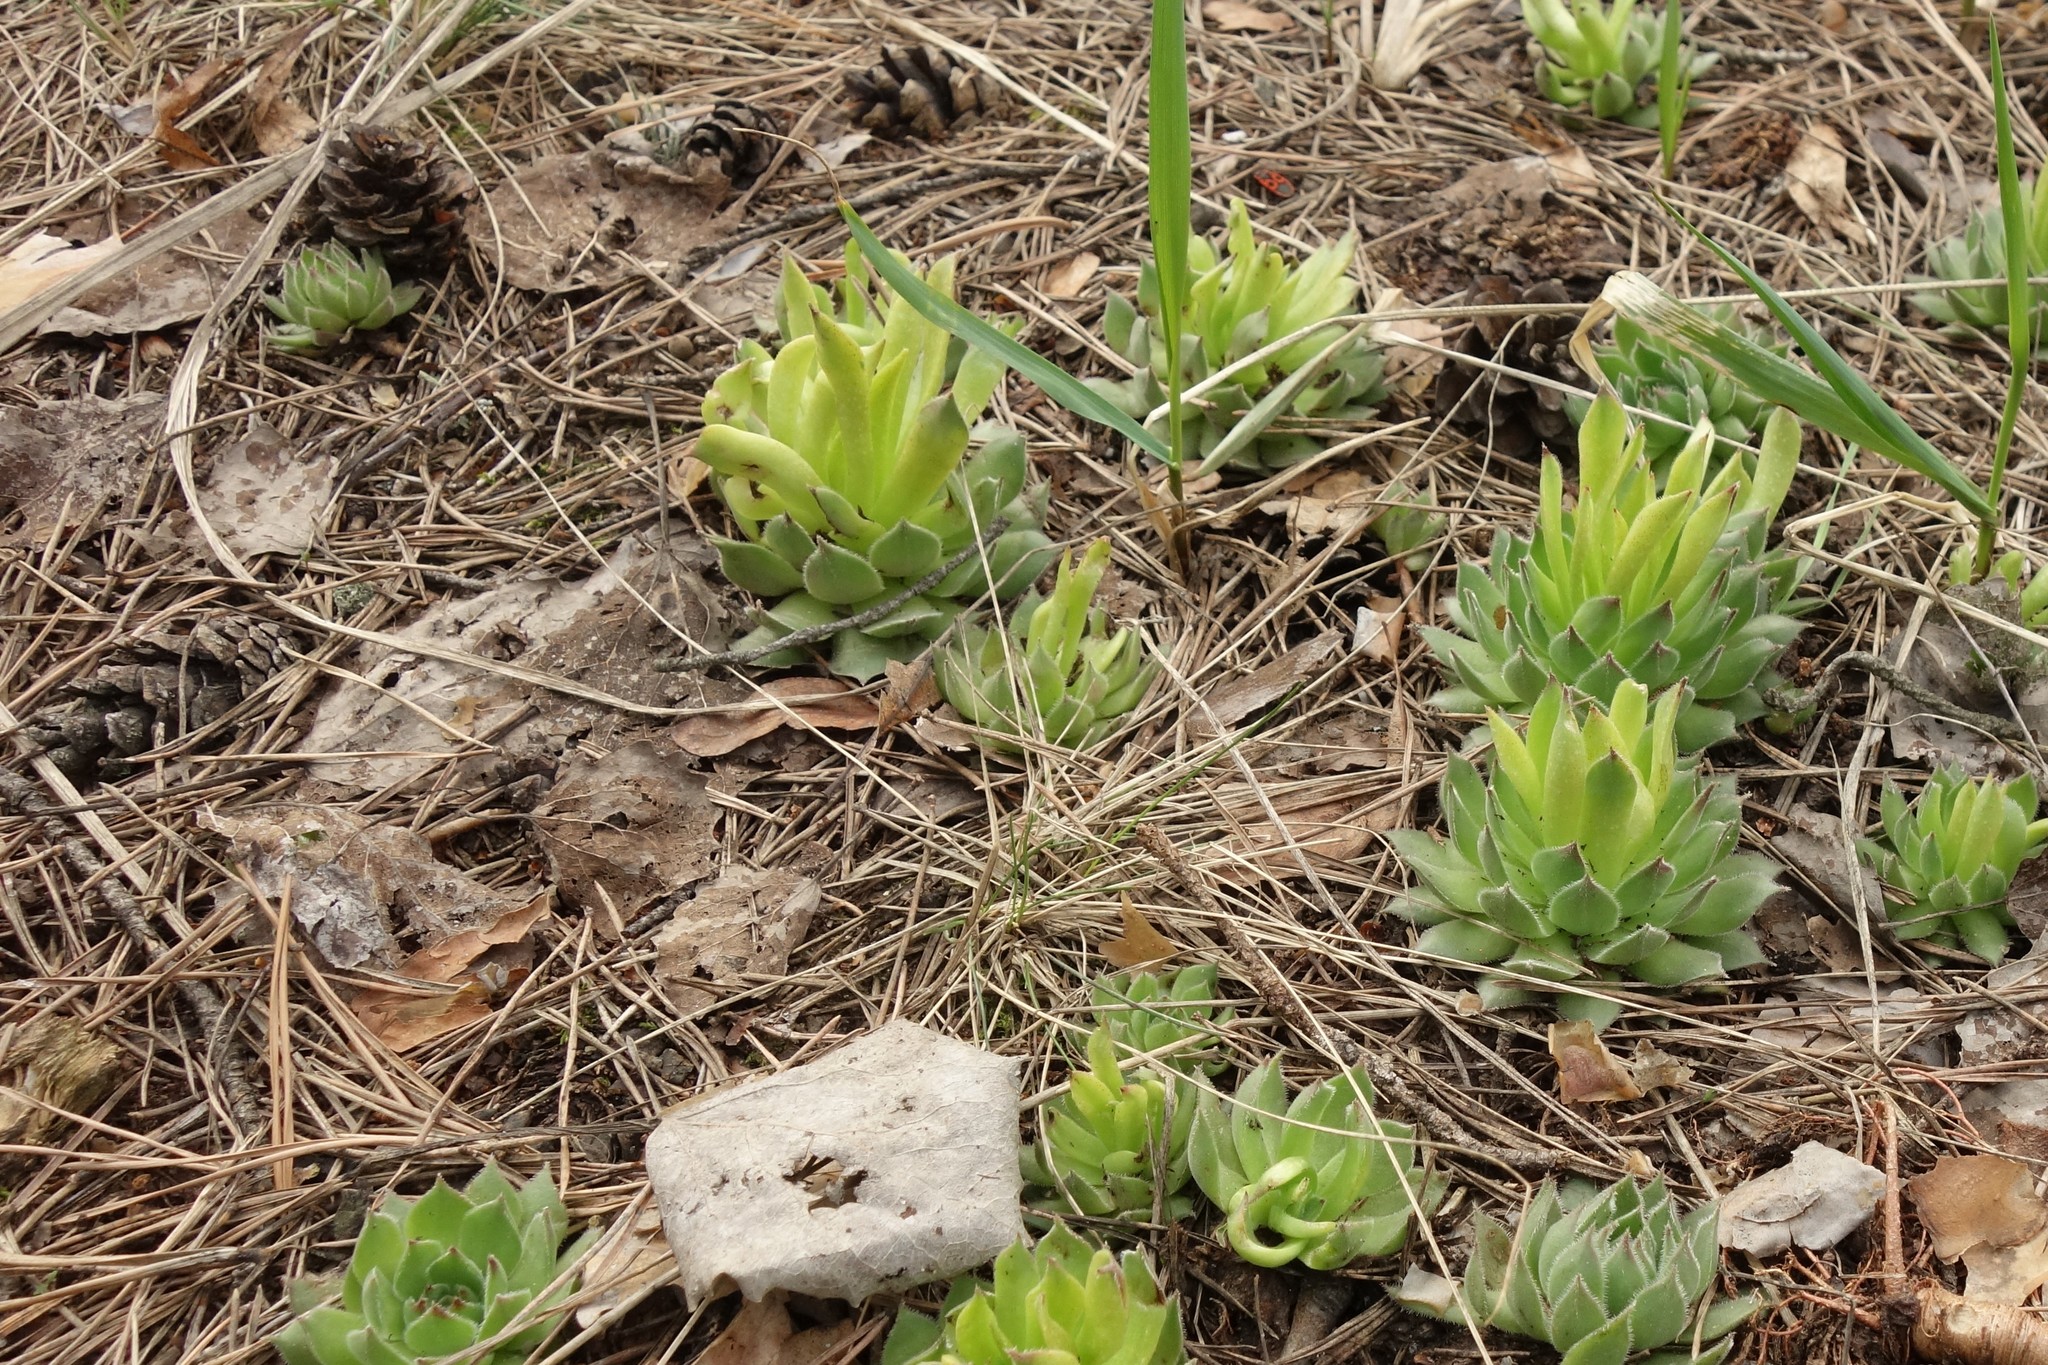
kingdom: Plantae
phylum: Tracheophyta
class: Magnoliopsida
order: Saxifragales
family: Crassulaceae
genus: Sempervivum
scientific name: Sempervivum ruthenicum
